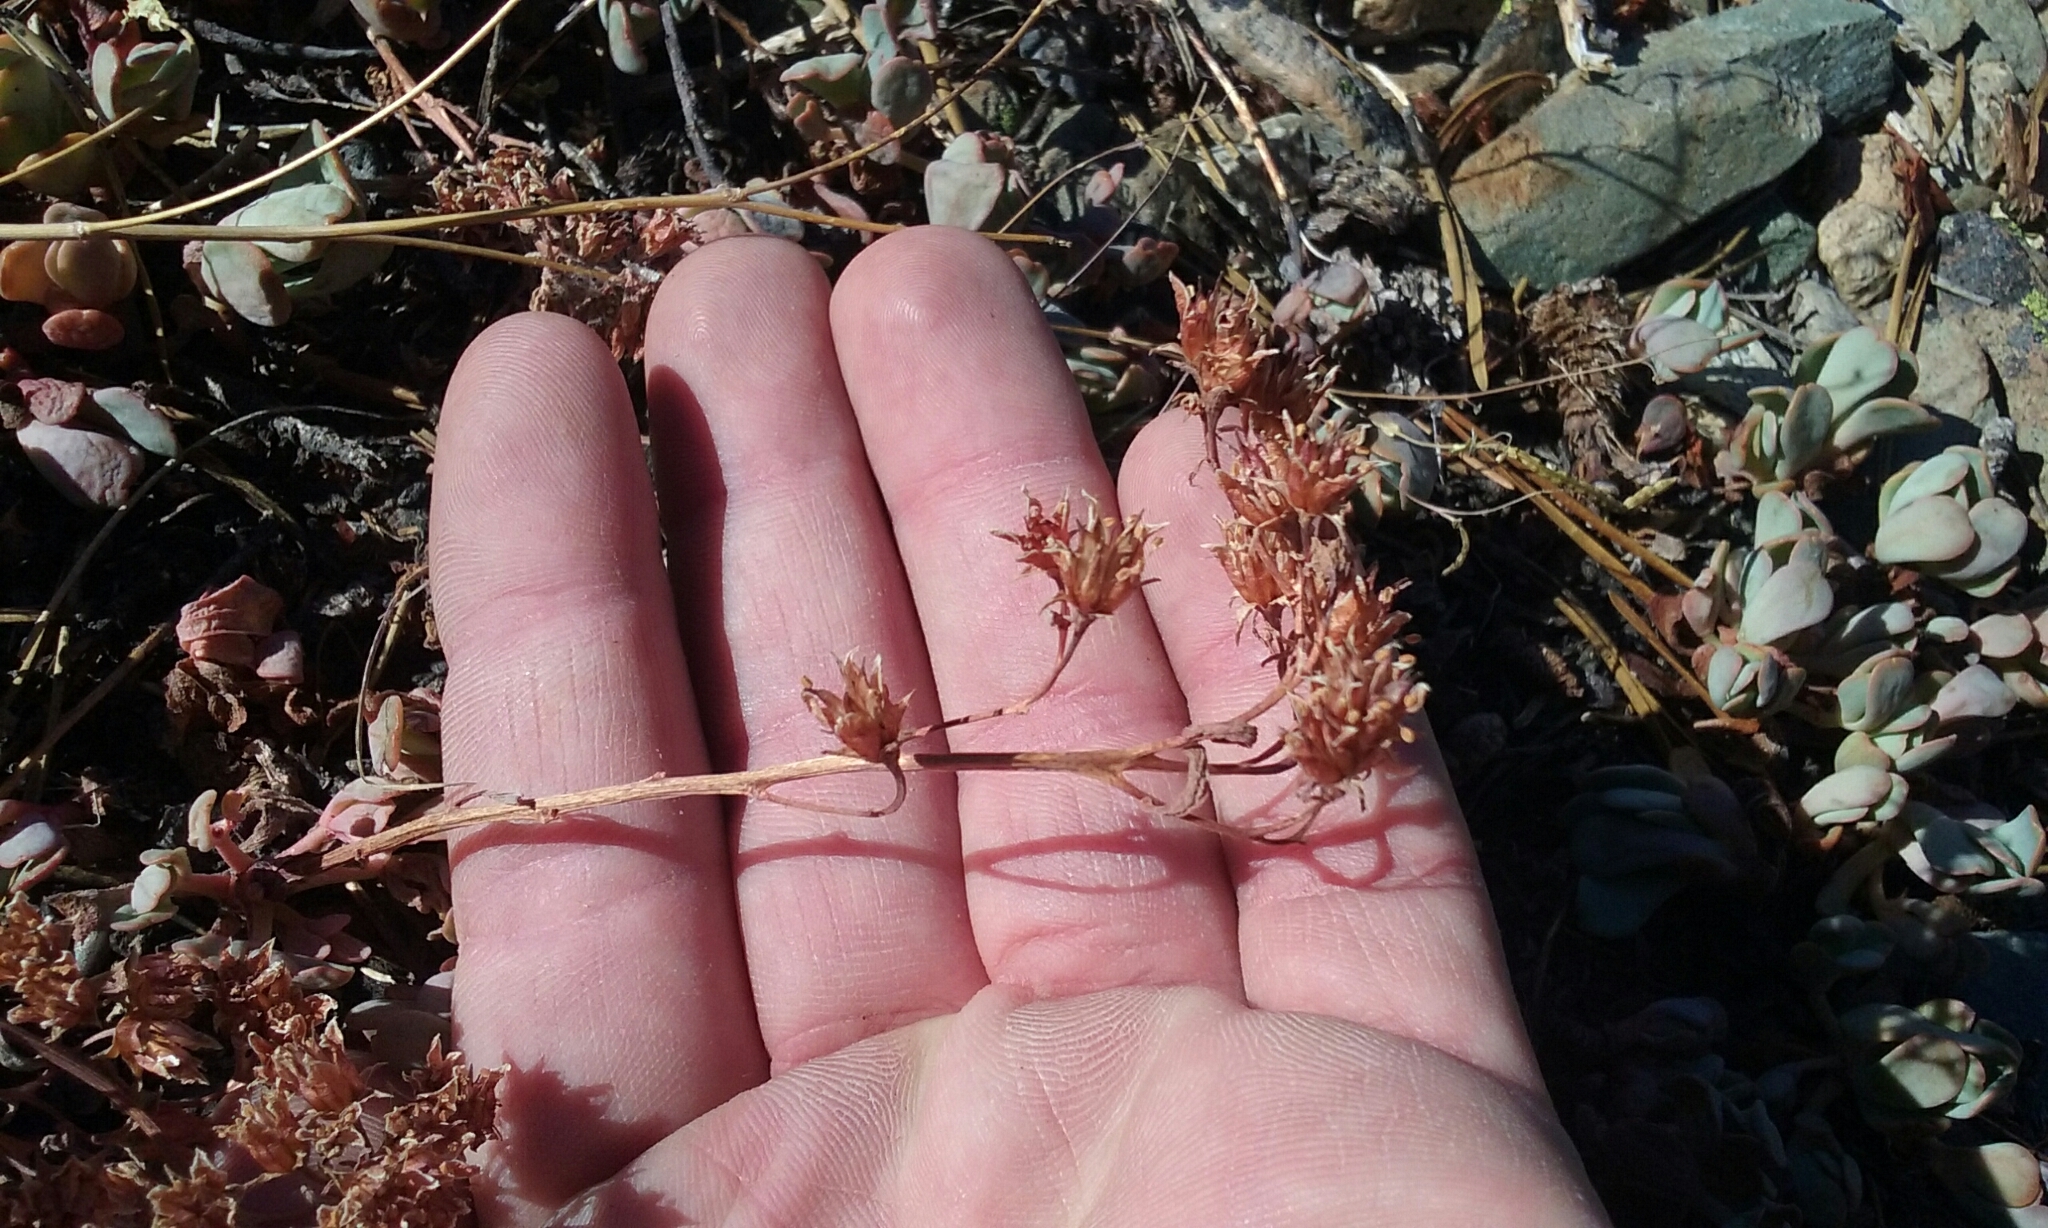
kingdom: Plantae
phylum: Tracheophyta
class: Magnoliopsida
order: Saxifragales
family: Crassulaceae
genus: Sedum
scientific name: Sedum obtusatum
